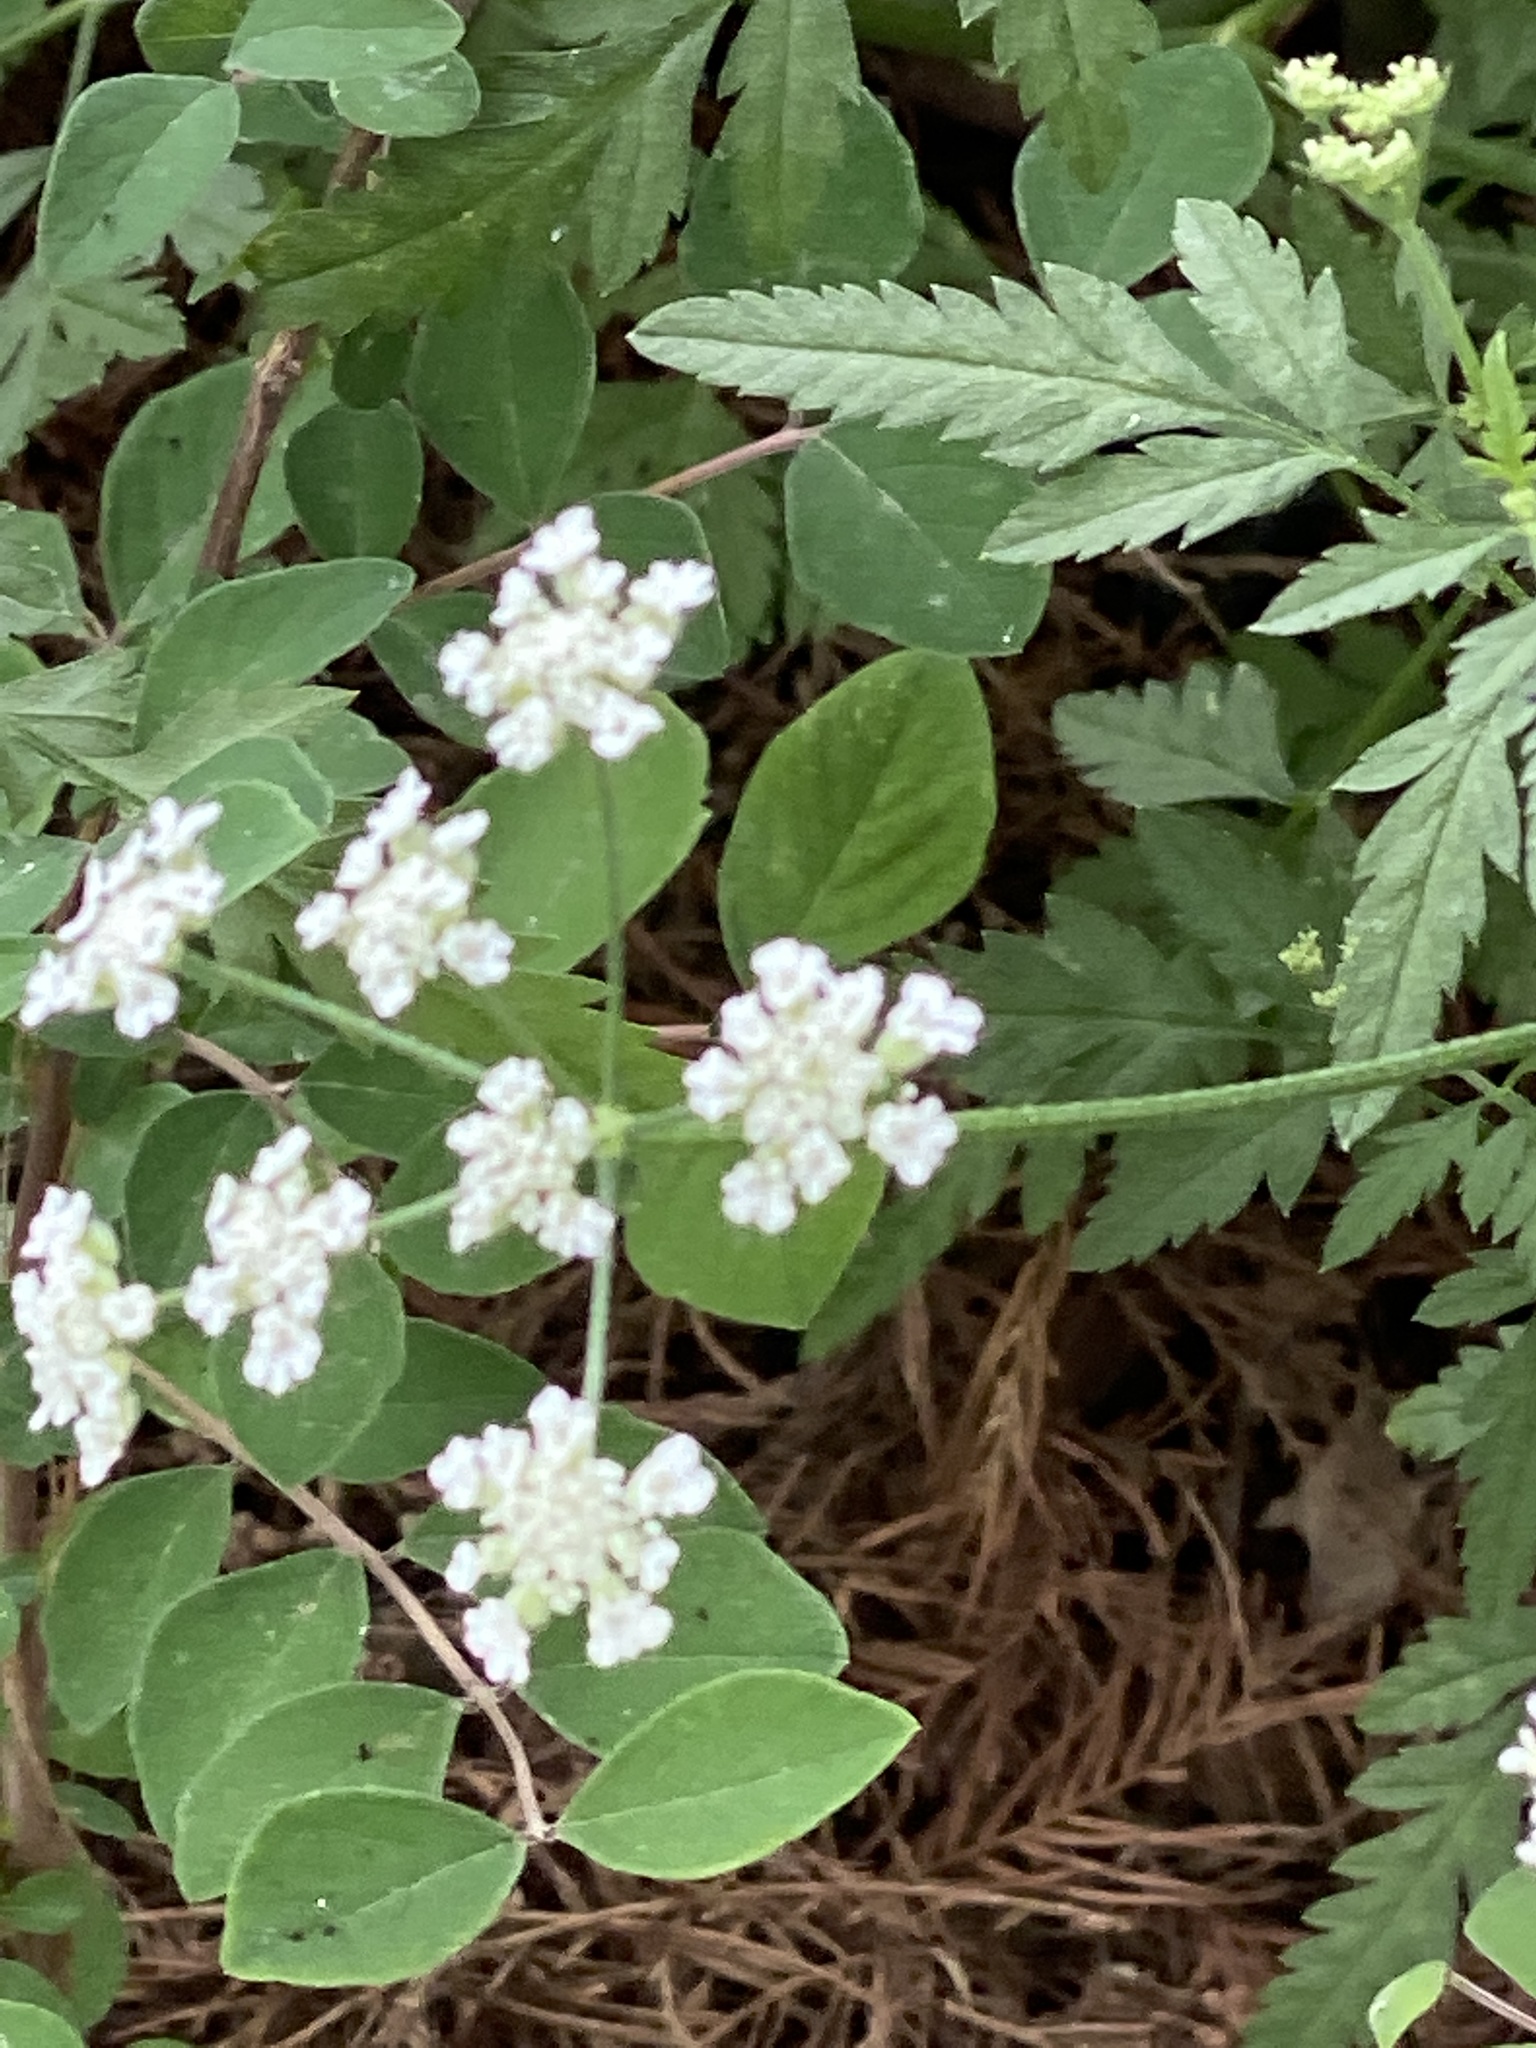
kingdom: Plantae
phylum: Tracheophyta
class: Magnoliopsida
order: Apiales
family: Apiaceae
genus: Torilis
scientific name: Torilis arvensis
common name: Spreading hedge-parsley
